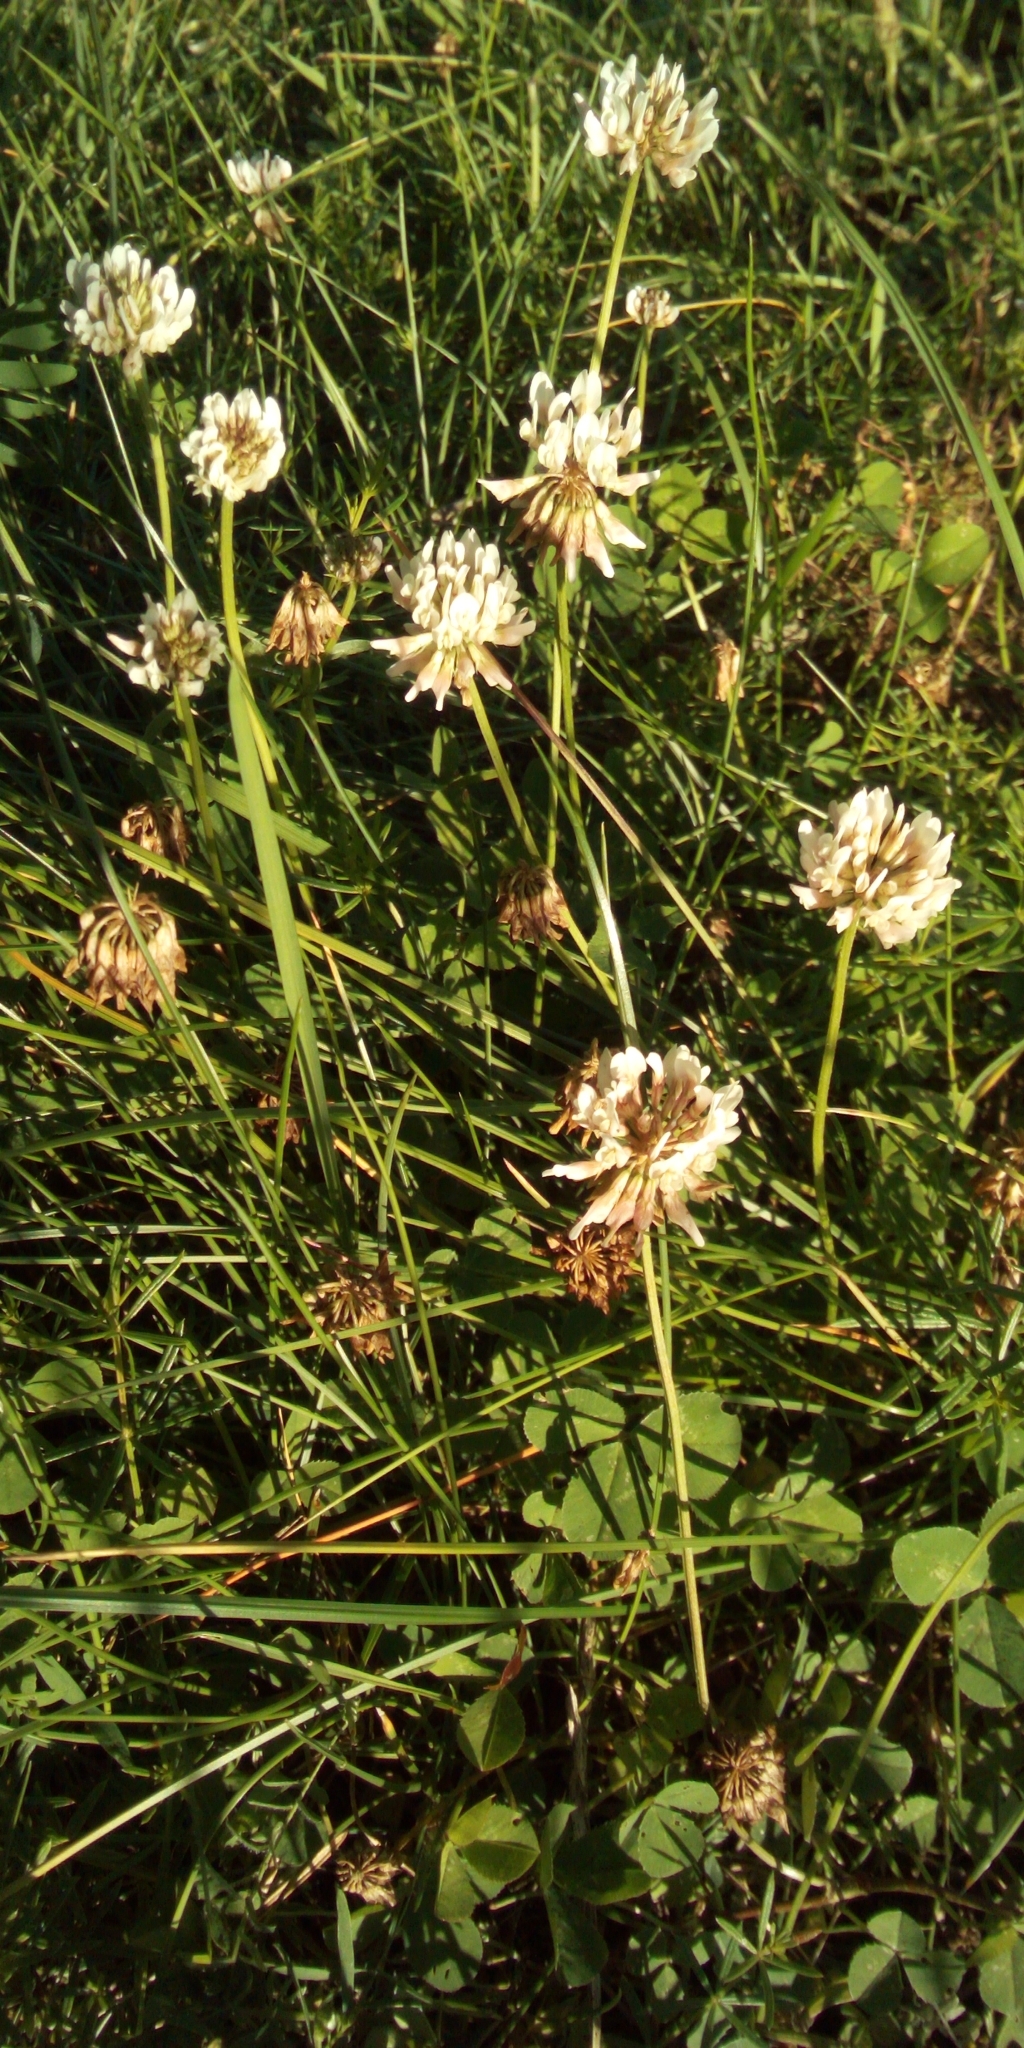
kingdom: Plantae
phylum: Tracheophyta
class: Magnoliopsida
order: Fabales
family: Fabaceae
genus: Trifolium
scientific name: Trifolium repens
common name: White clover
